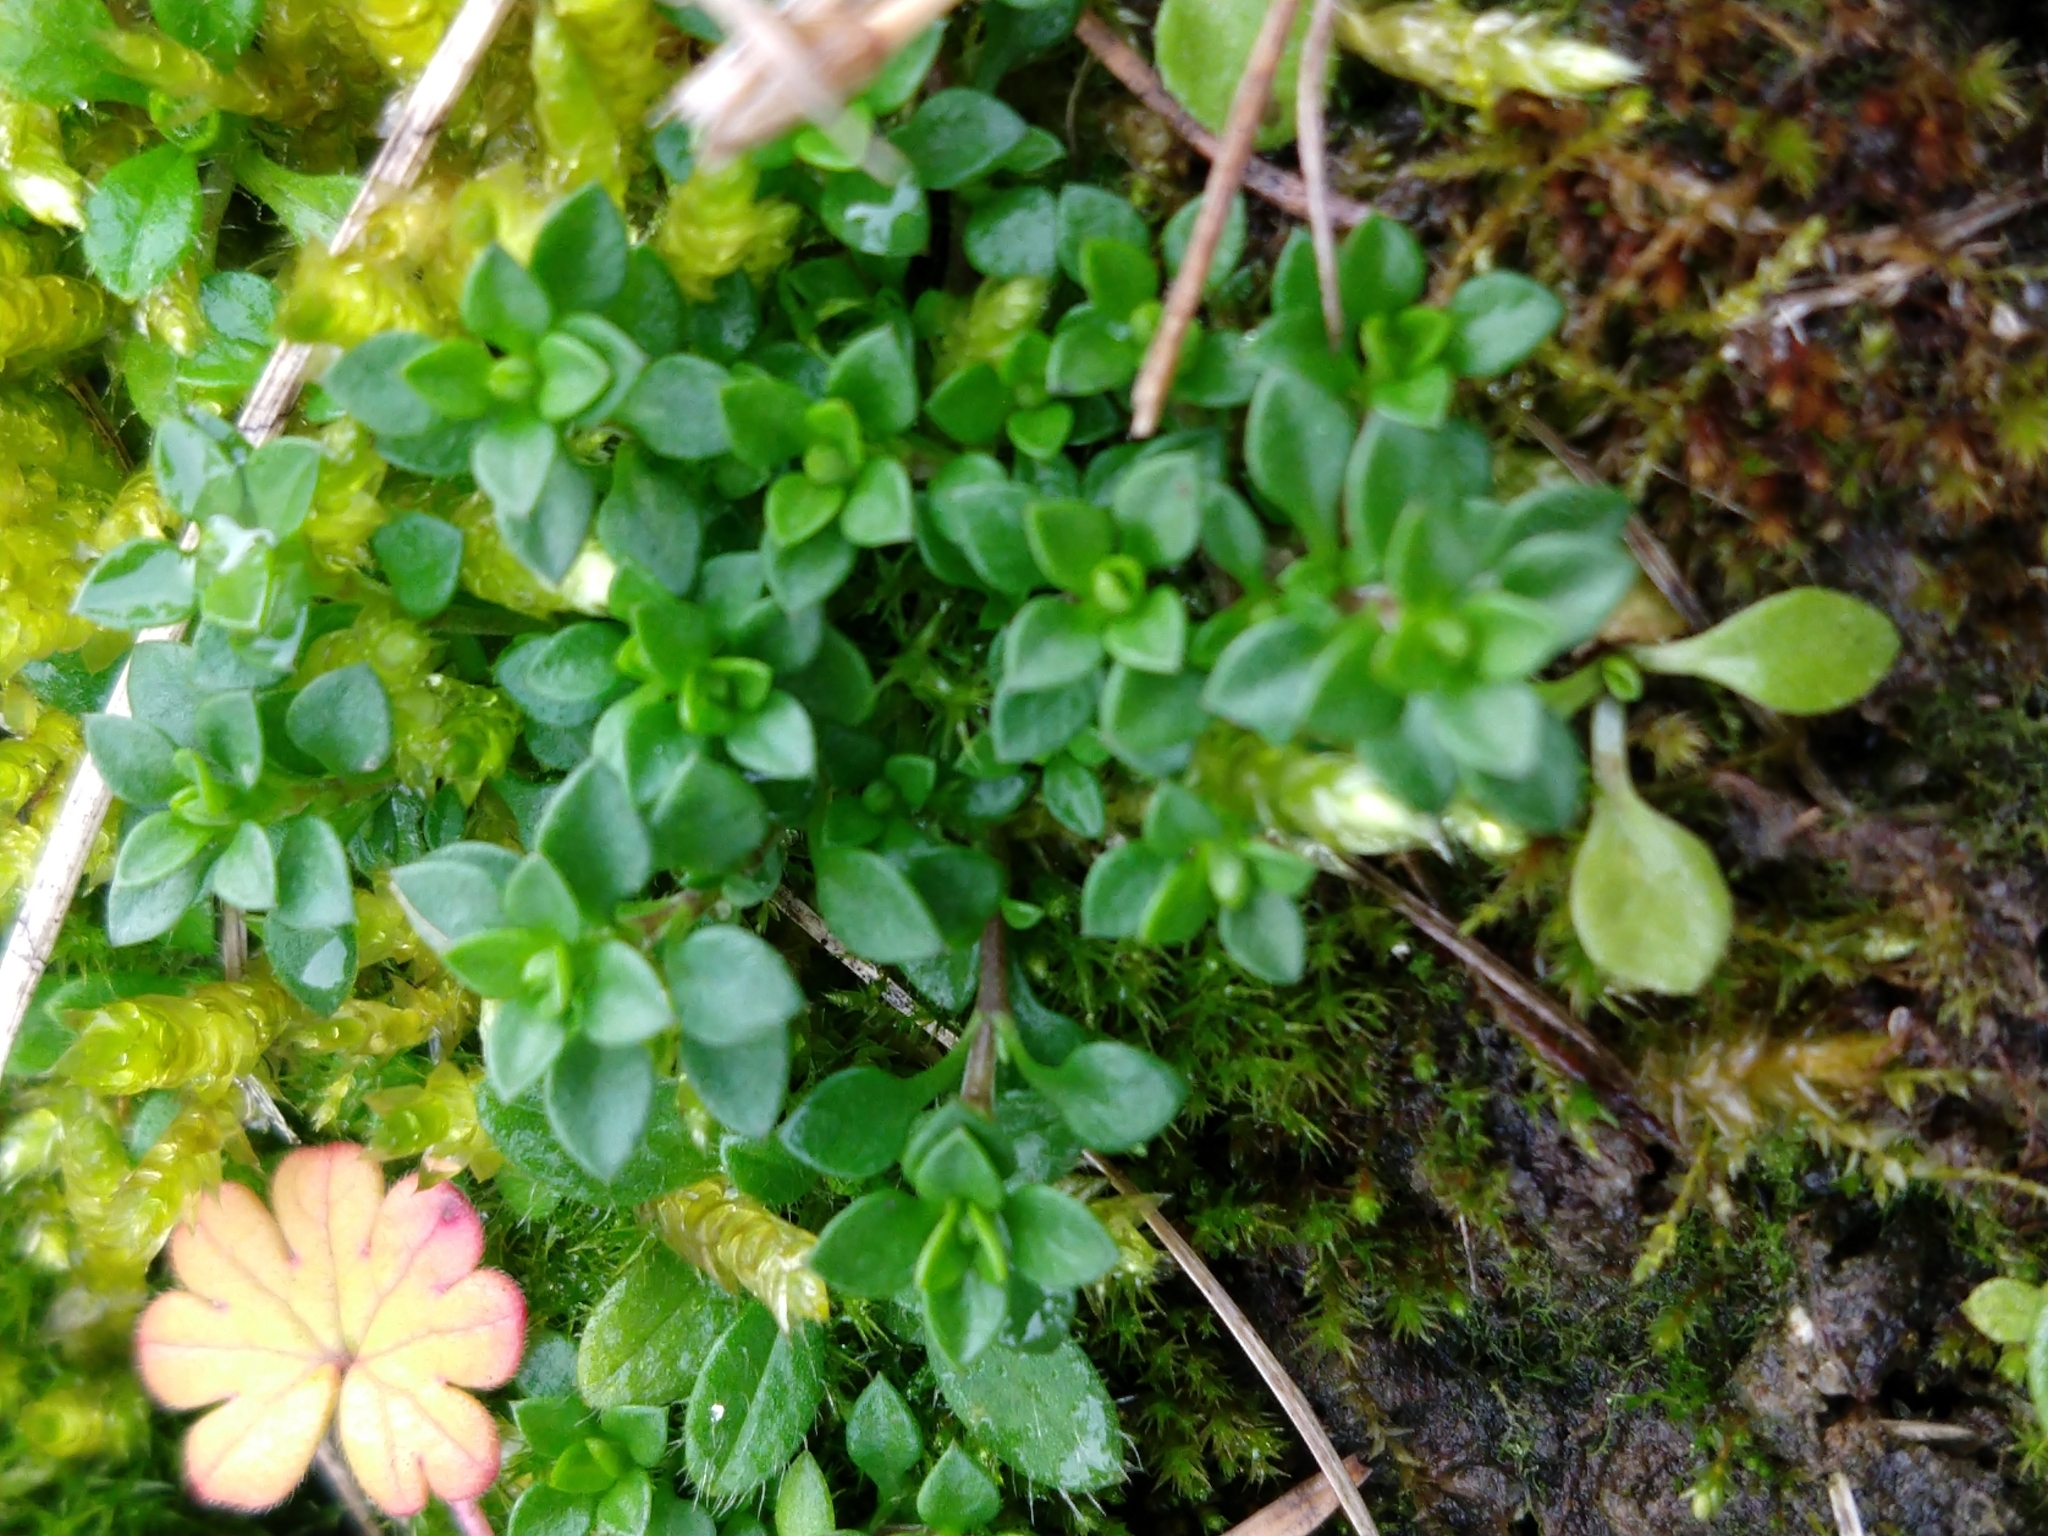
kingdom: Plantae
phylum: Tracheophyta
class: Magnoliopsida
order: Caryophyllales
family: Caryophyllaceae
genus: Arenaria
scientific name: Arenaria serpyllifolia
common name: Thyme-leaved sandwort
